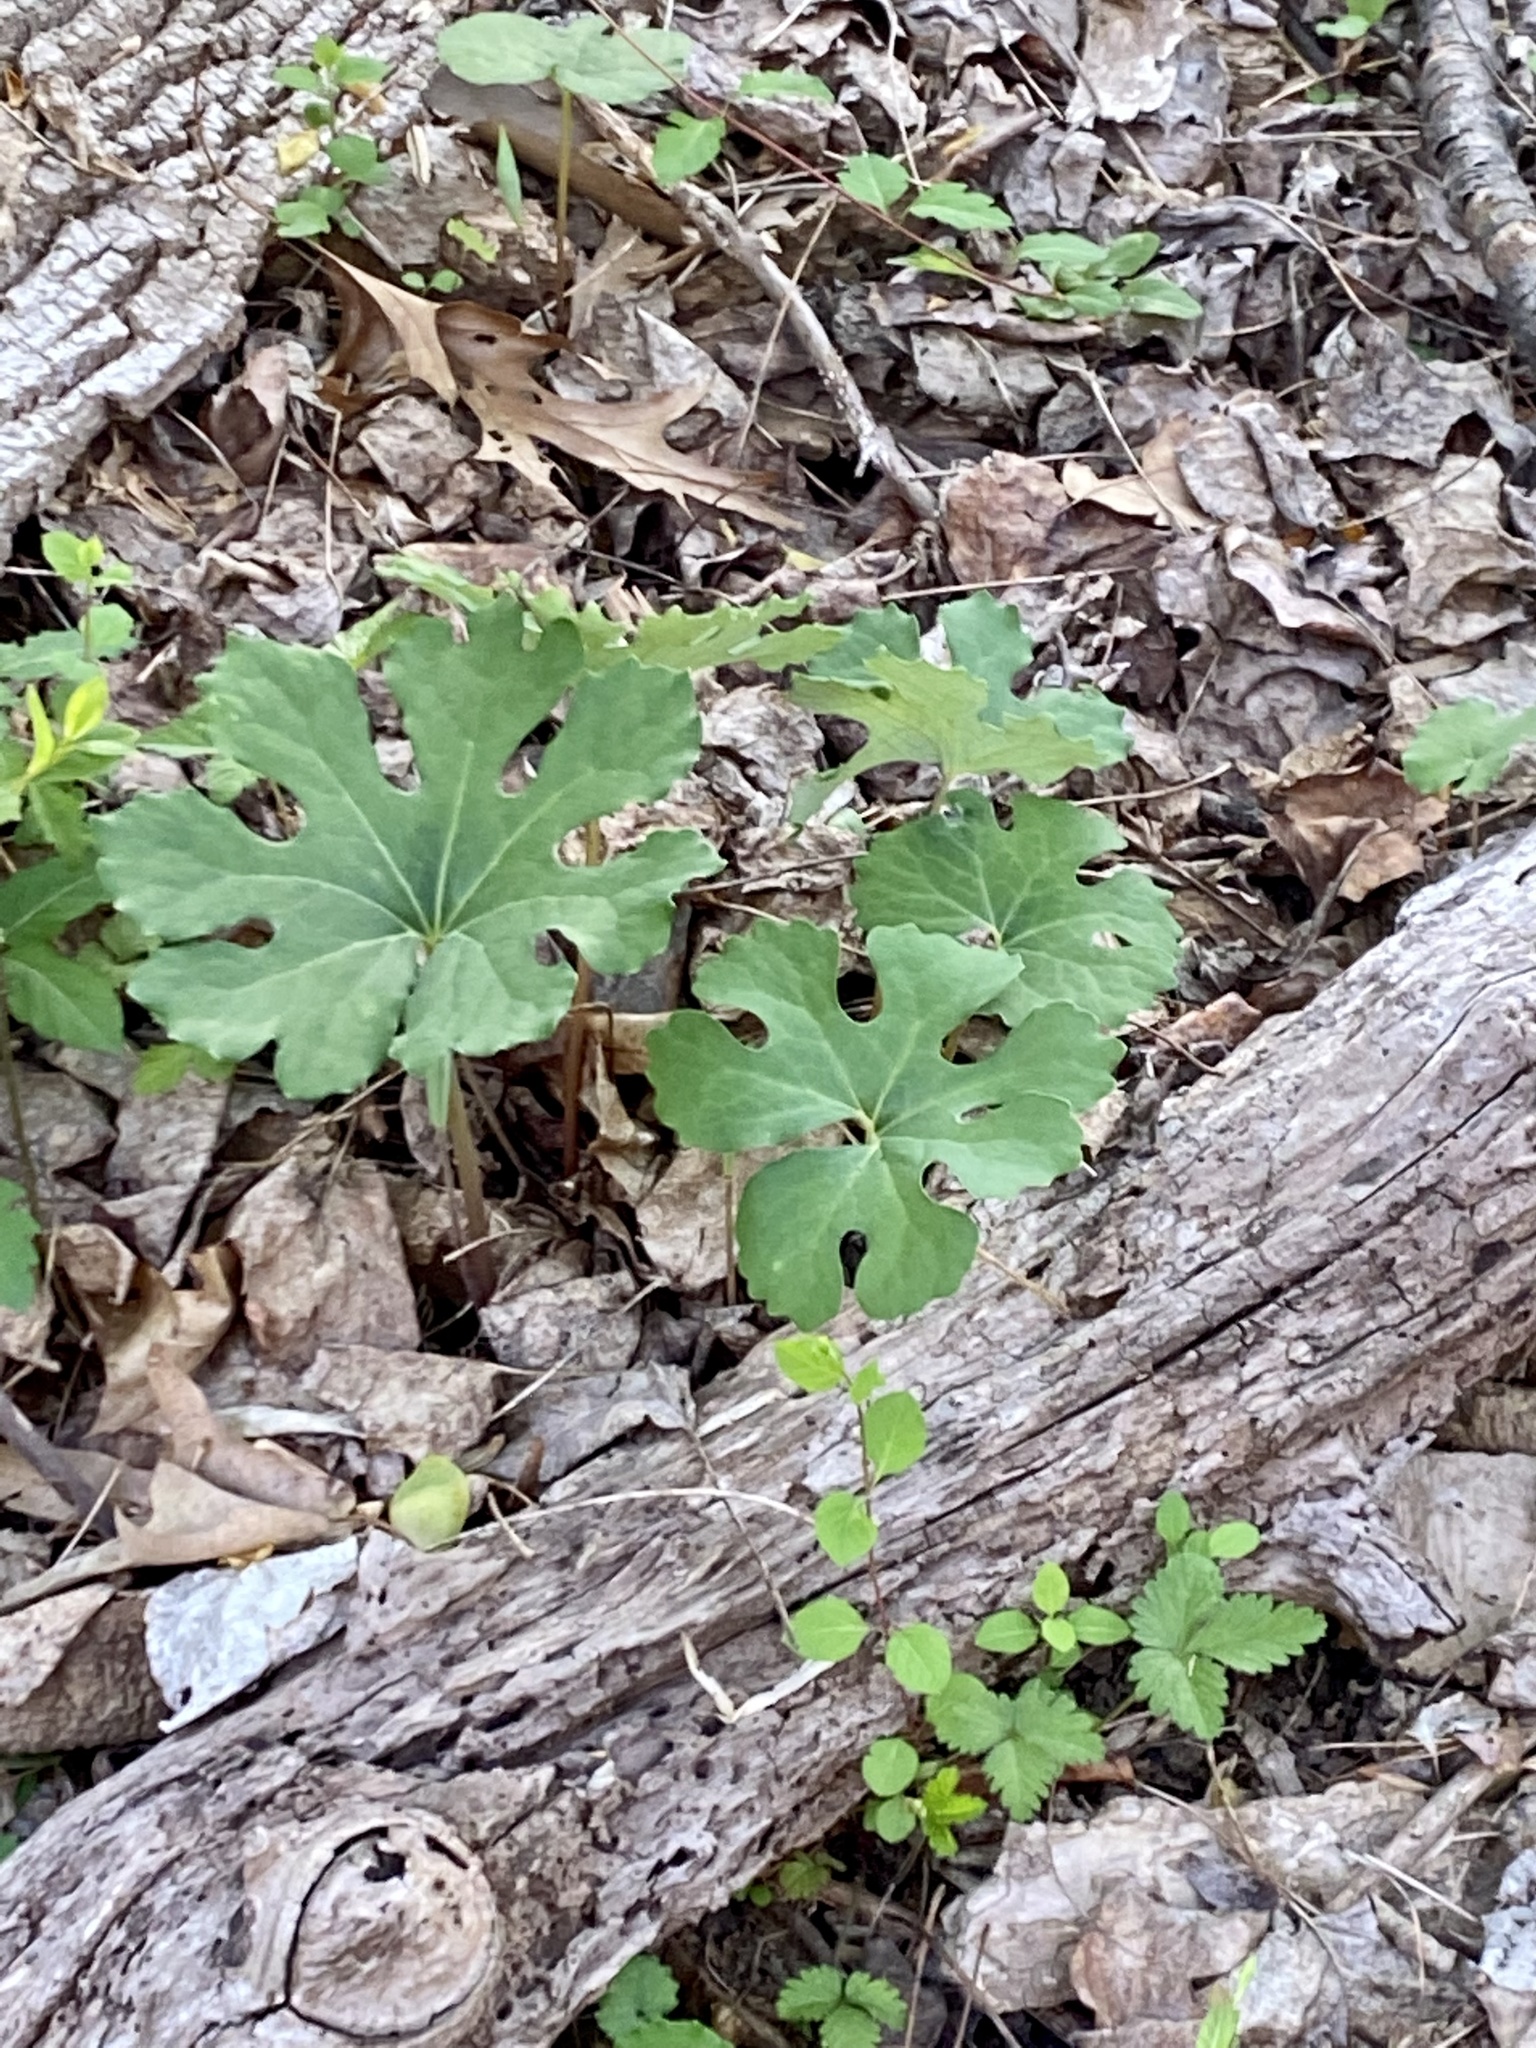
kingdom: Plantae
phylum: Tracheophyta
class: Magnoliopsida
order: Ranunculales
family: Papaveraceae
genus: Sanguinaria
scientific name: Sanguinaria canadensis
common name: Bloodroot
